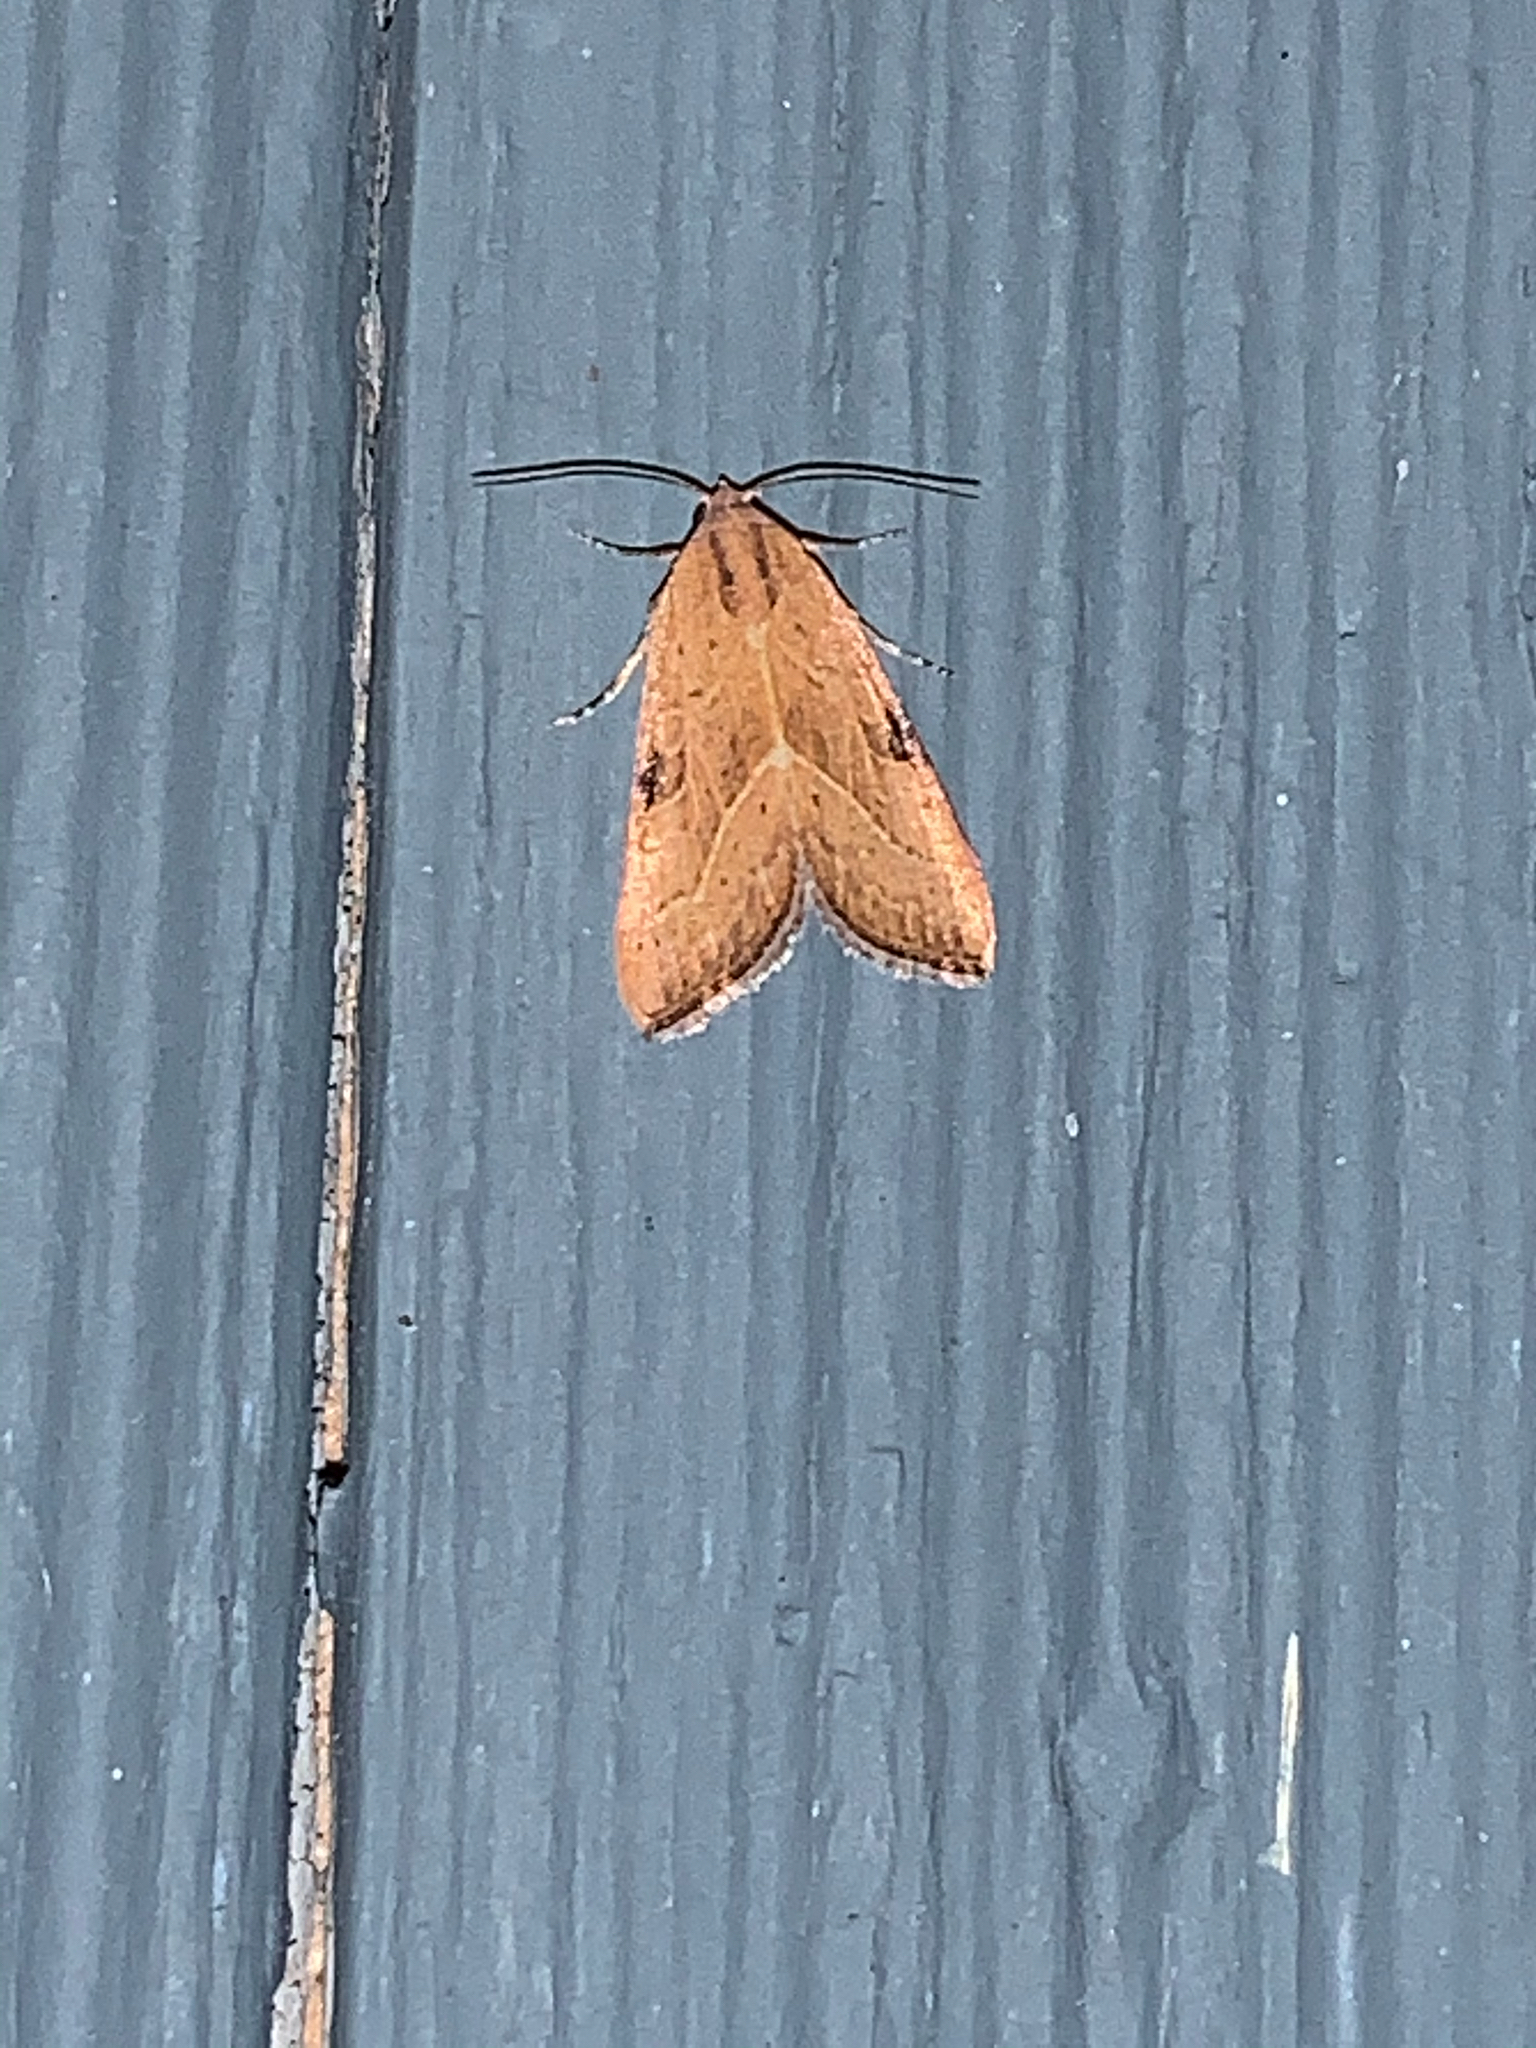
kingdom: Animalia
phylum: Arthropoda
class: Insecta
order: Lepidoptera
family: Noctuidae
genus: Galgula
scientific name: Galgula partita
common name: Wedgeling
